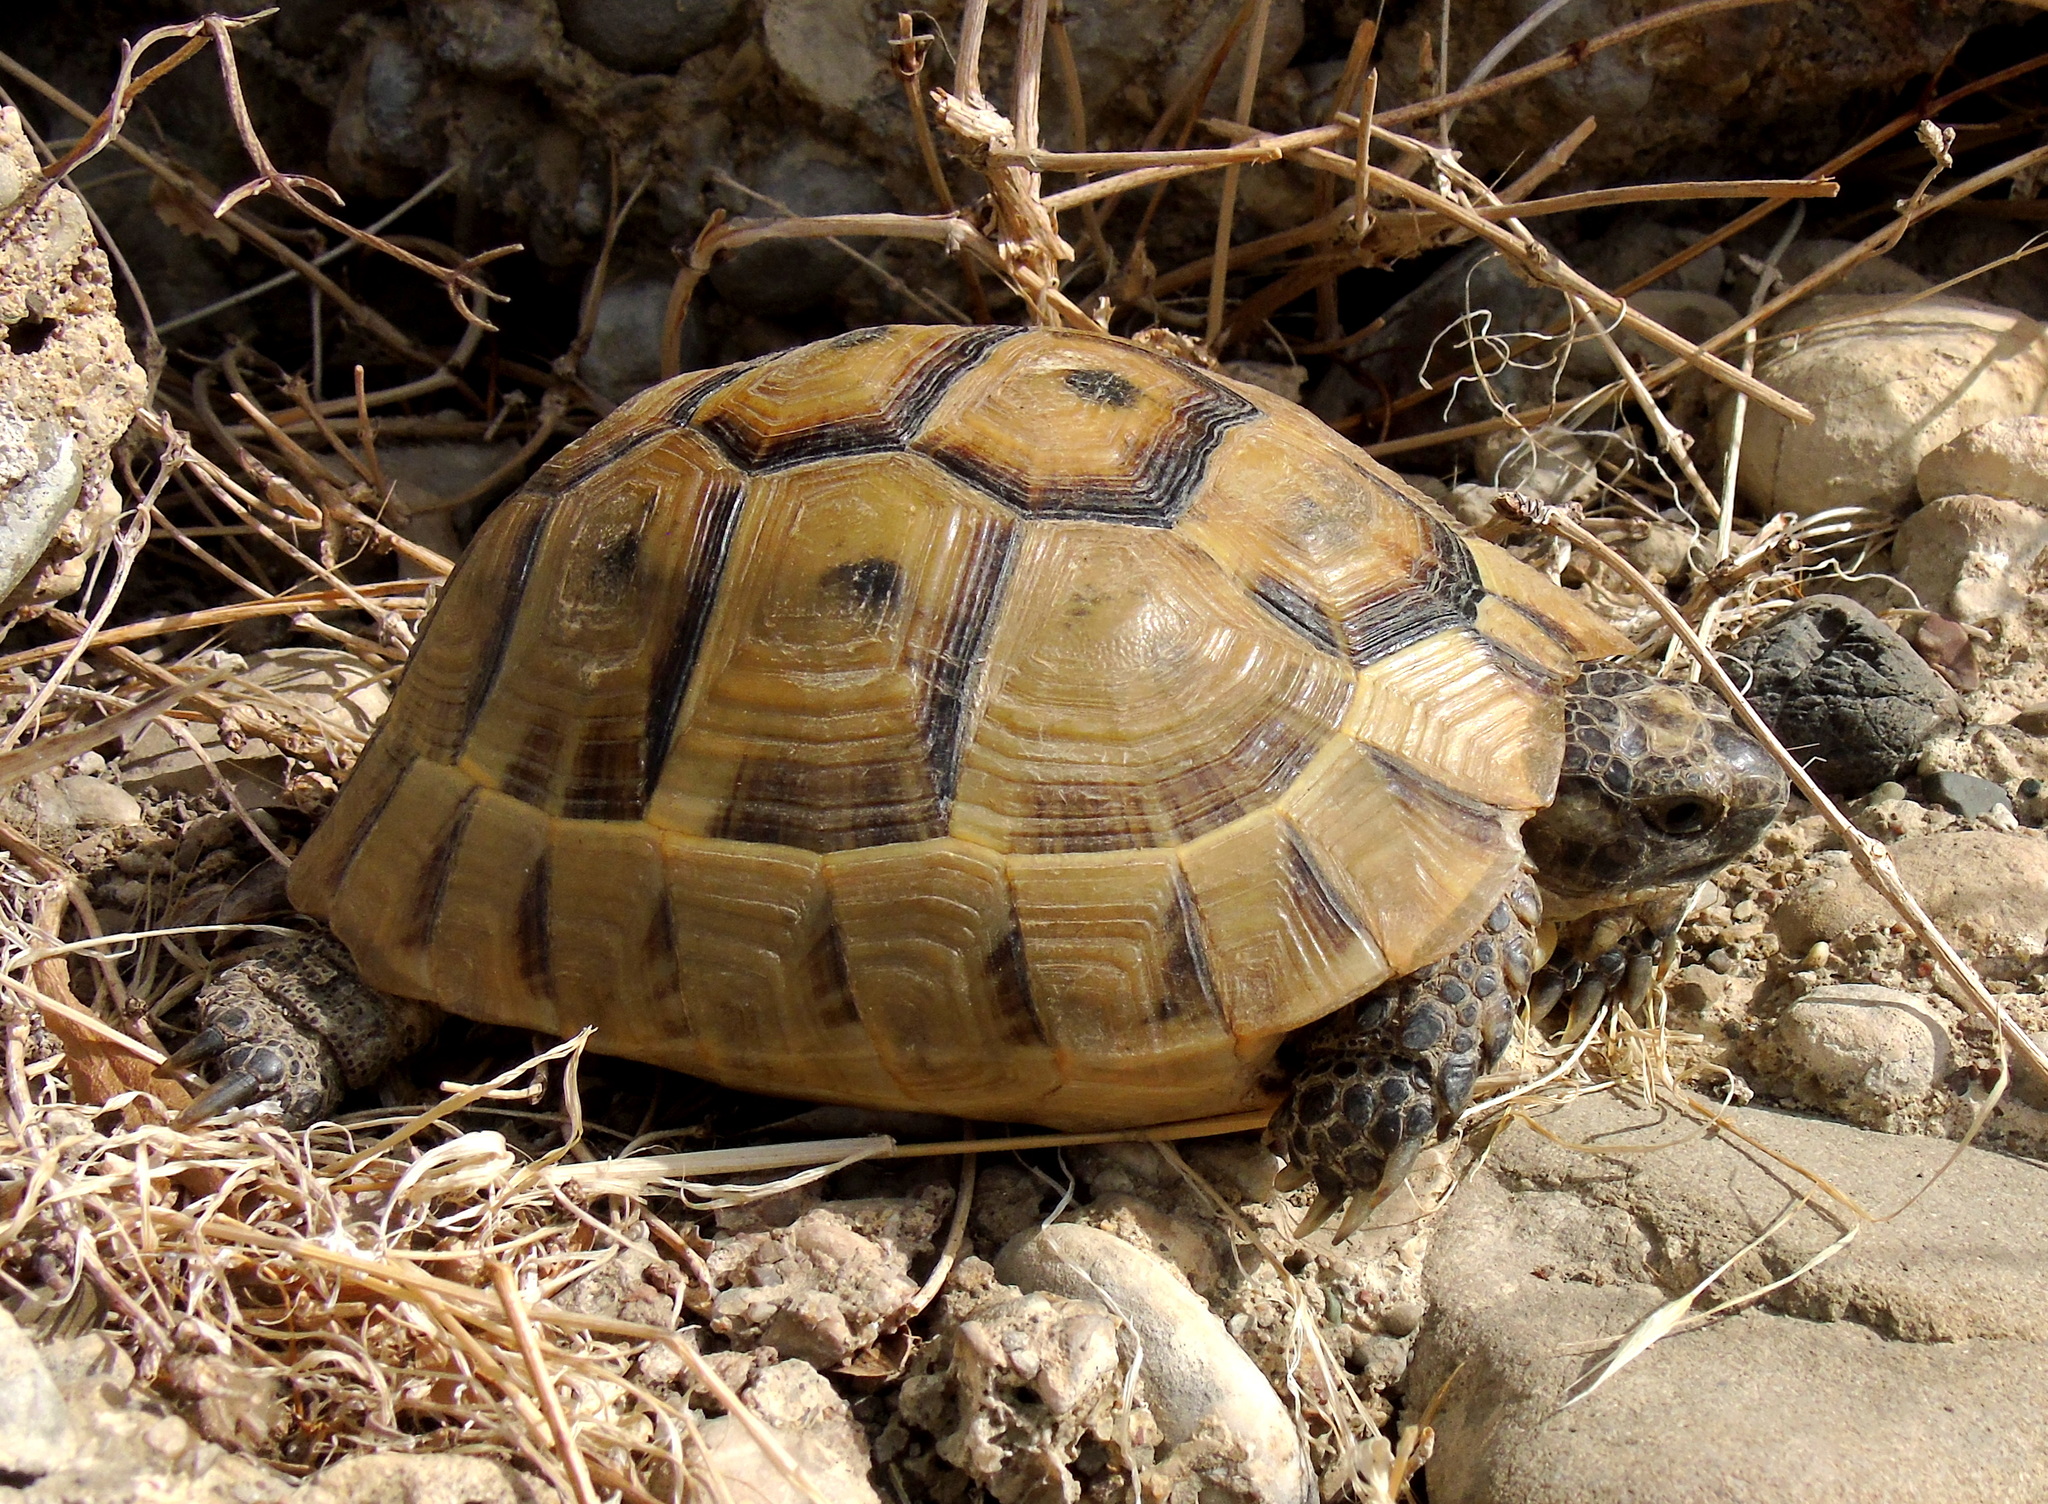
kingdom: Animalia
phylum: Chordata
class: Testudines
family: Testudinidae
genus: Testudo
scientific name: Testudo graeca
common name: Common tortoise
